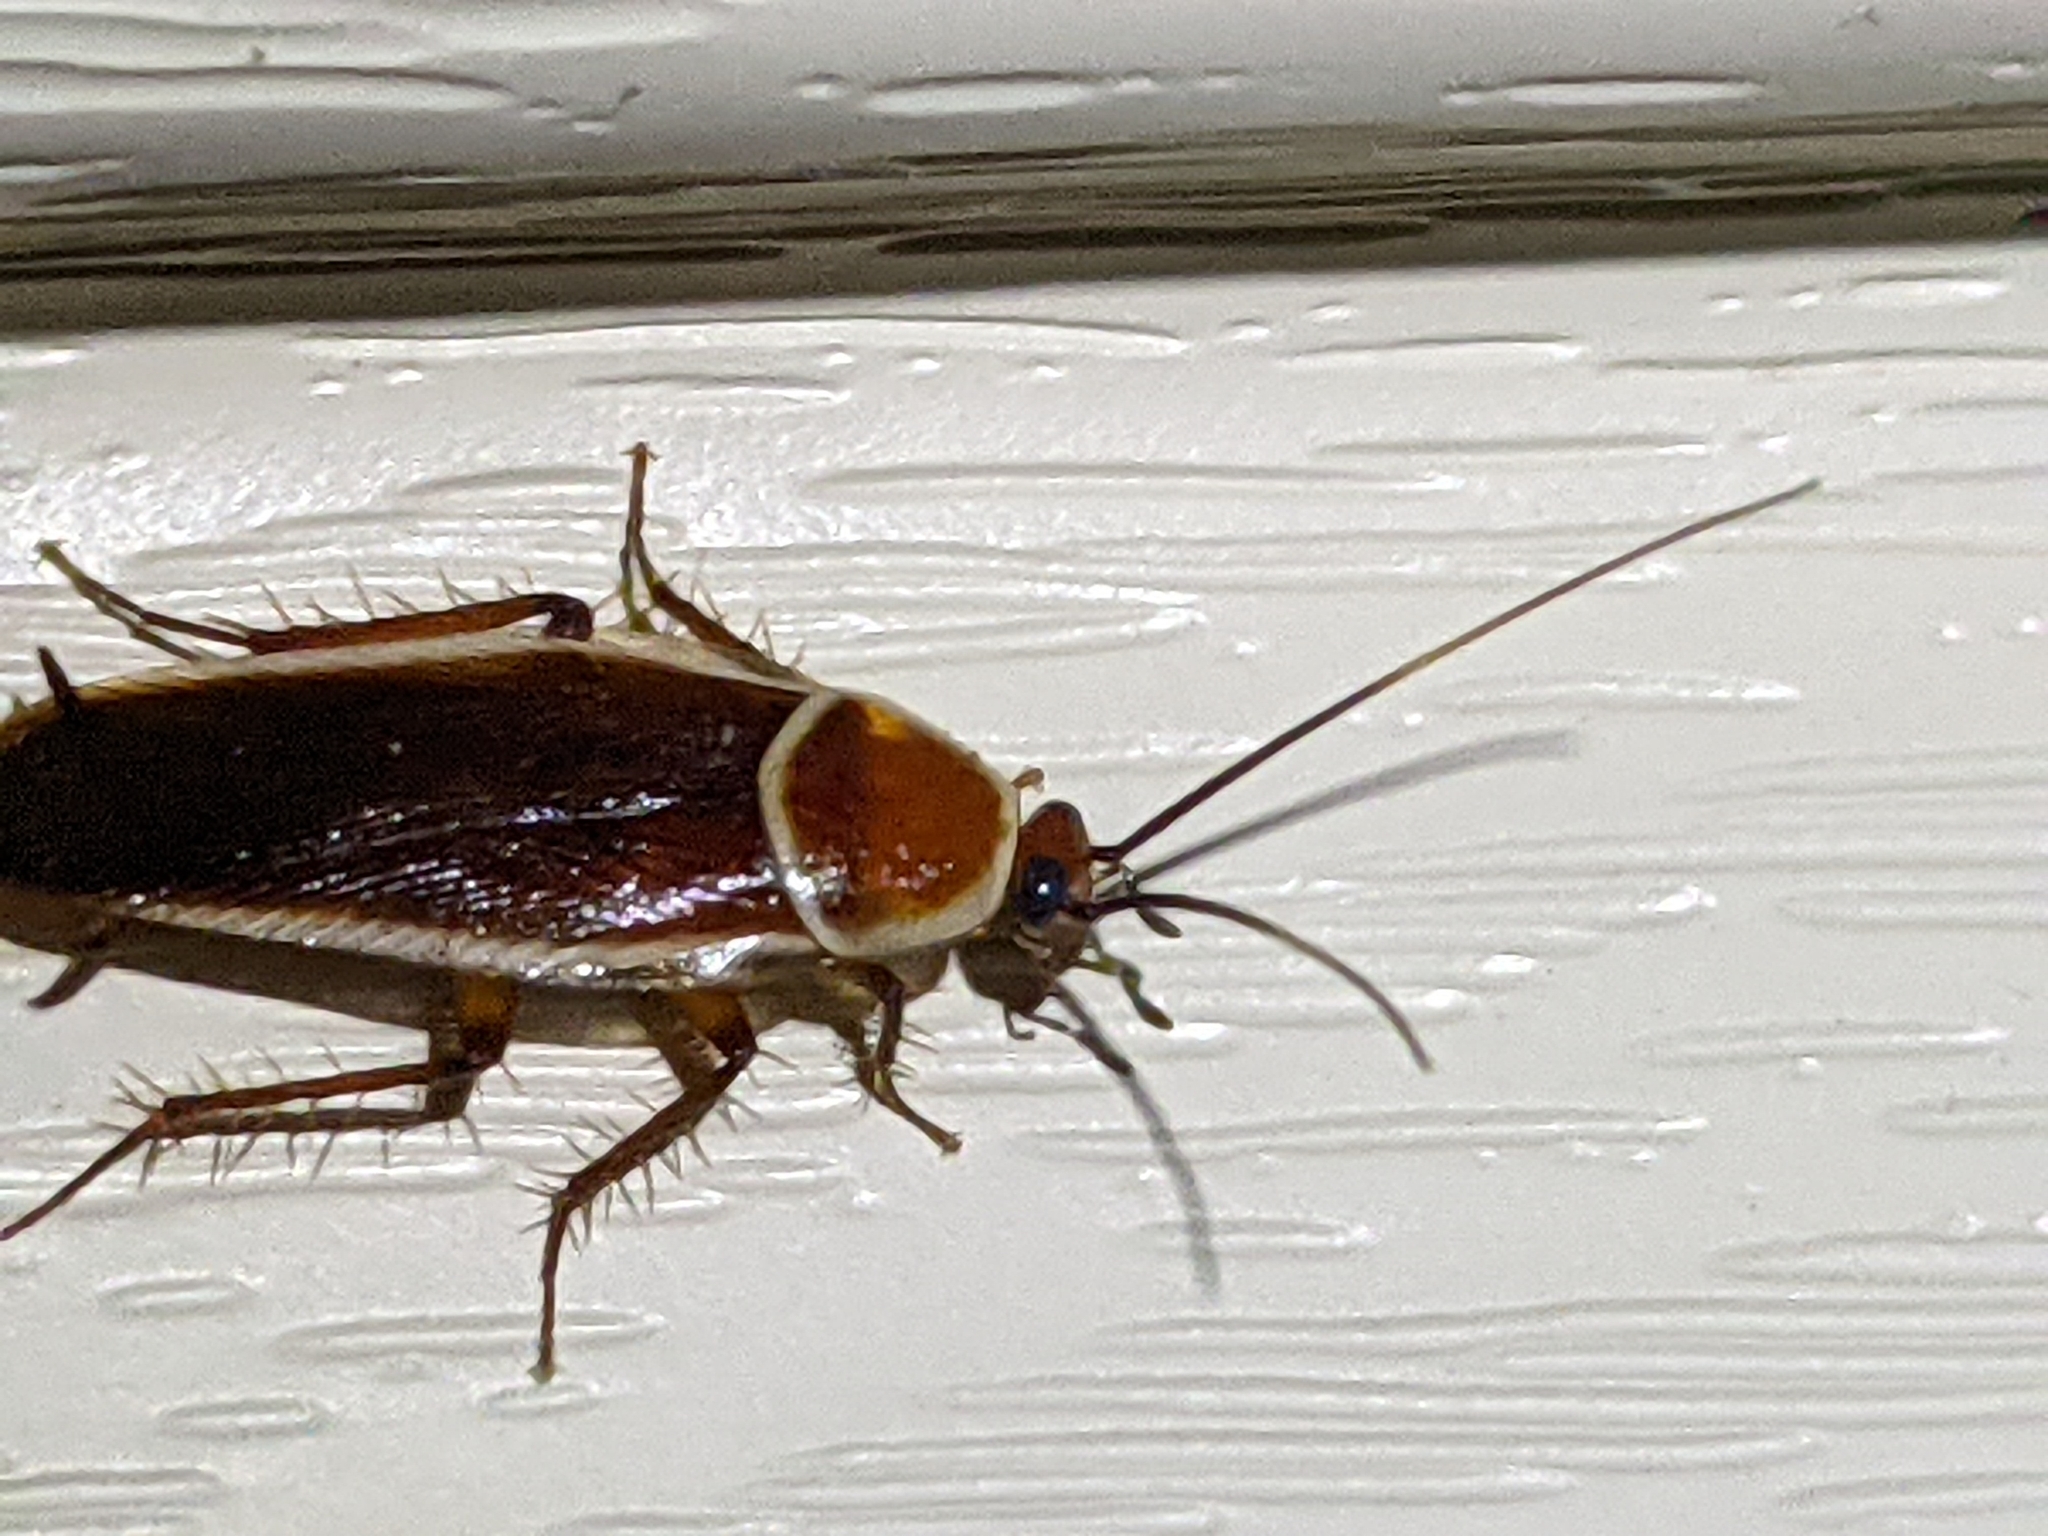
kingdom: Animalia
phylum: Arthropoda
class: Insecta
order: Blattodea
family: Ectobiidae
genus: Pseudomops
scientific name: Pseudomops septentrionalis
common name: Pale-bordered field cockroach
